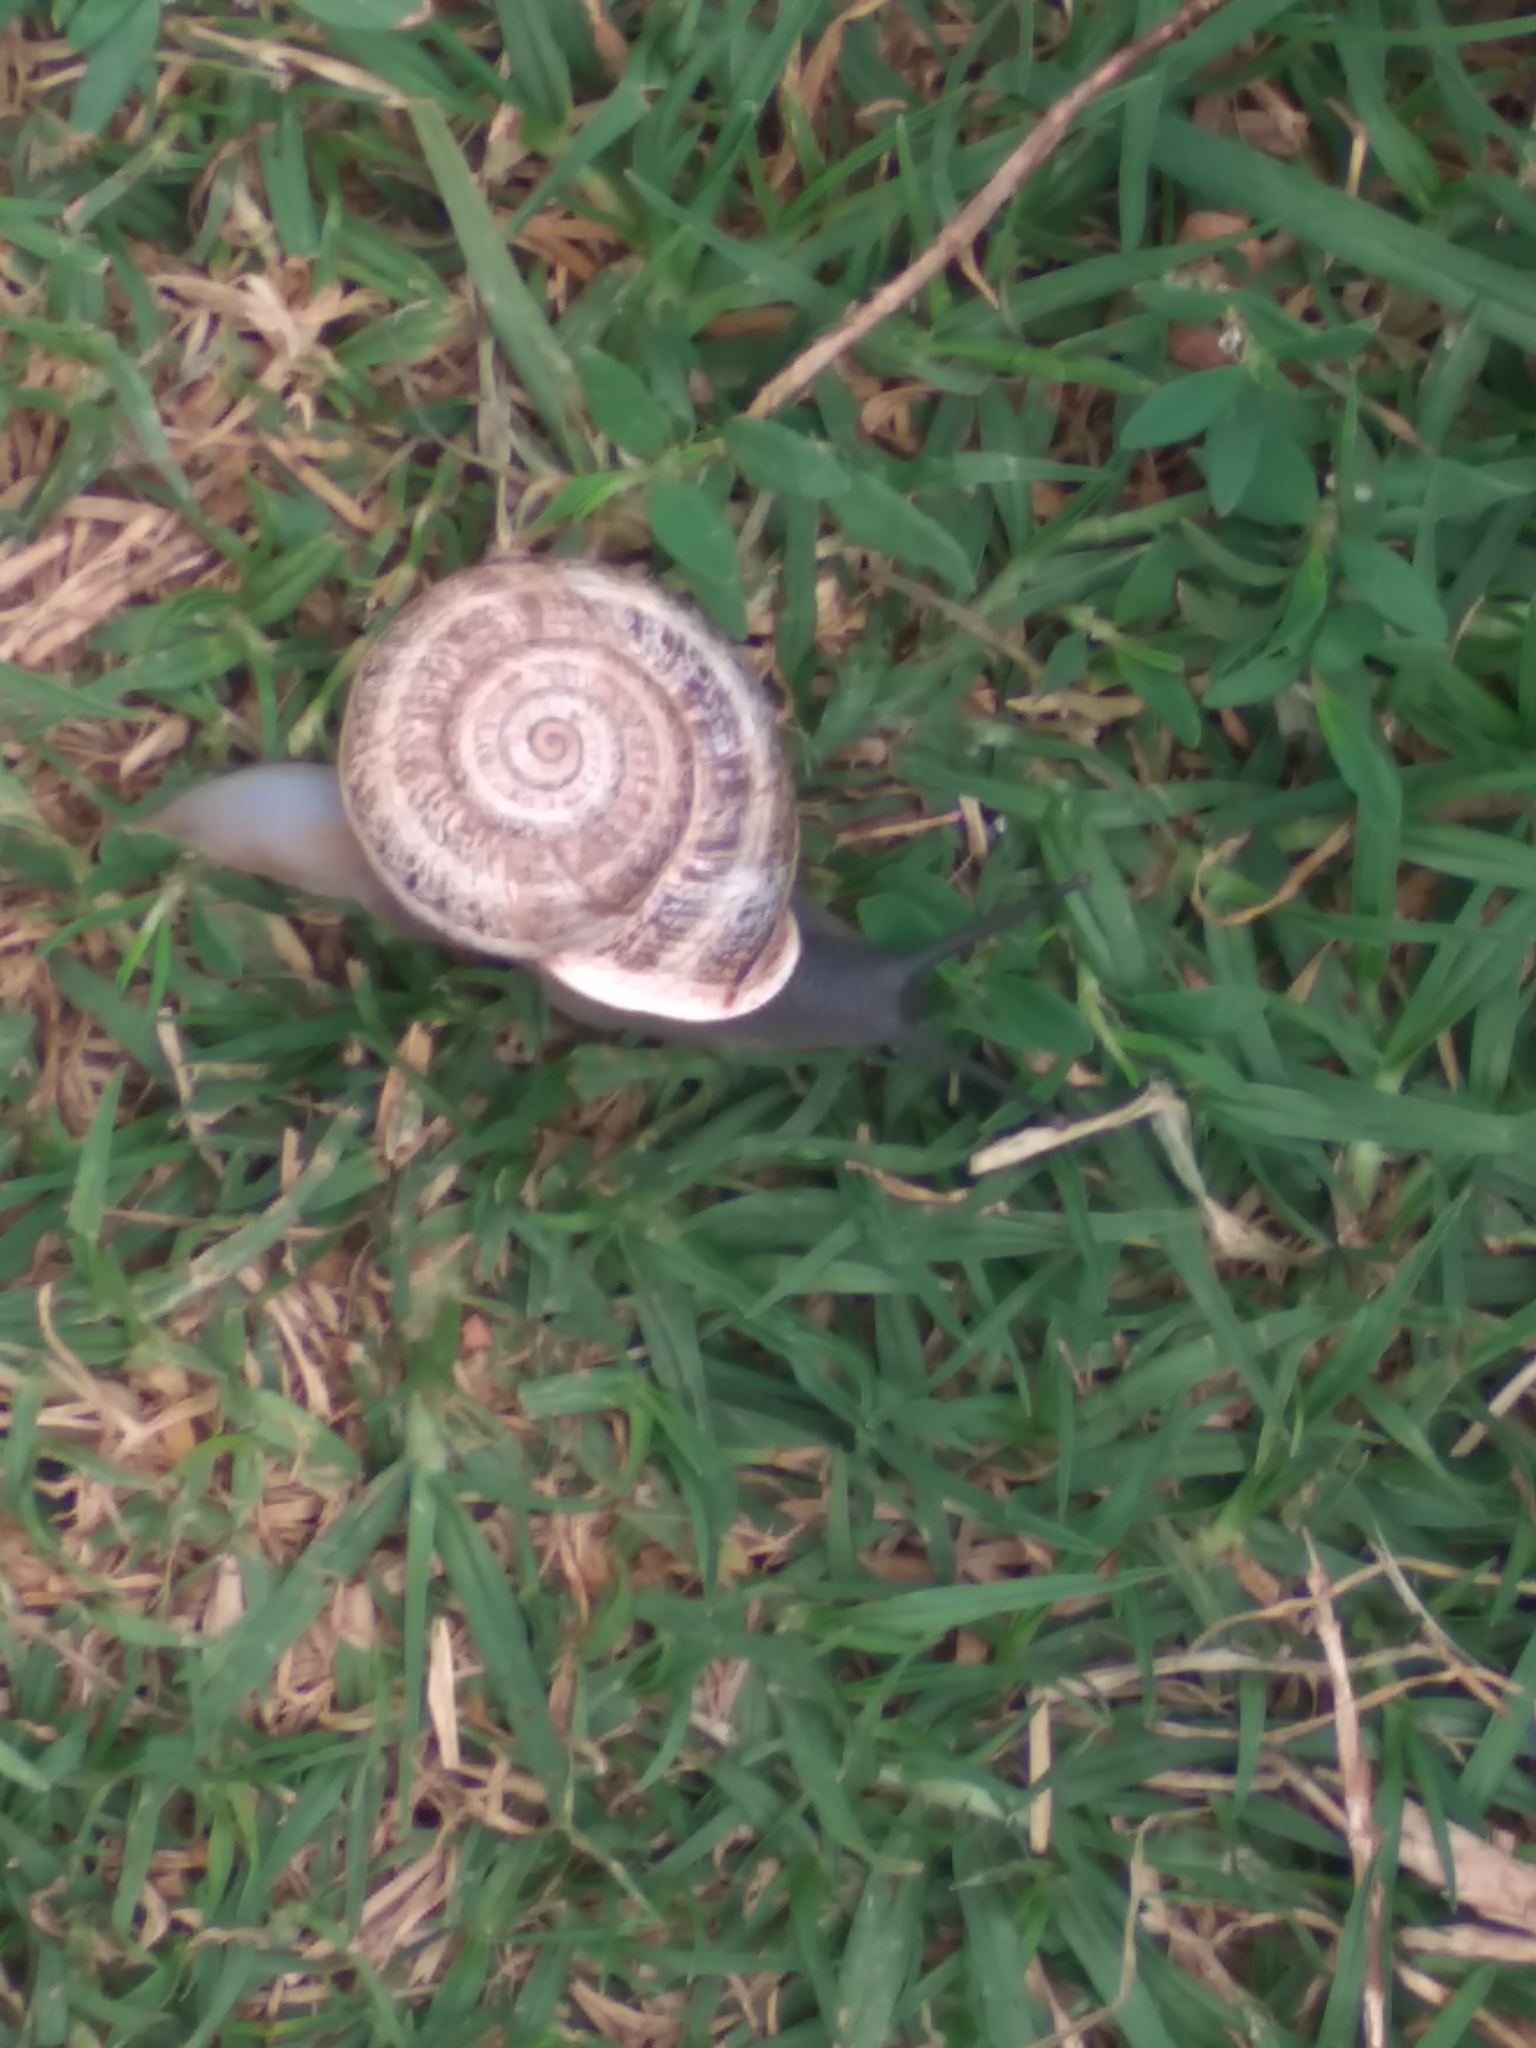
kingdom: Animalia
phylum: Mollusca
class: Gastropoda
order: Stylommatophora
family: Helicidae
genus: Otala
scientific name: Otala lactea
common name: Milk snail
